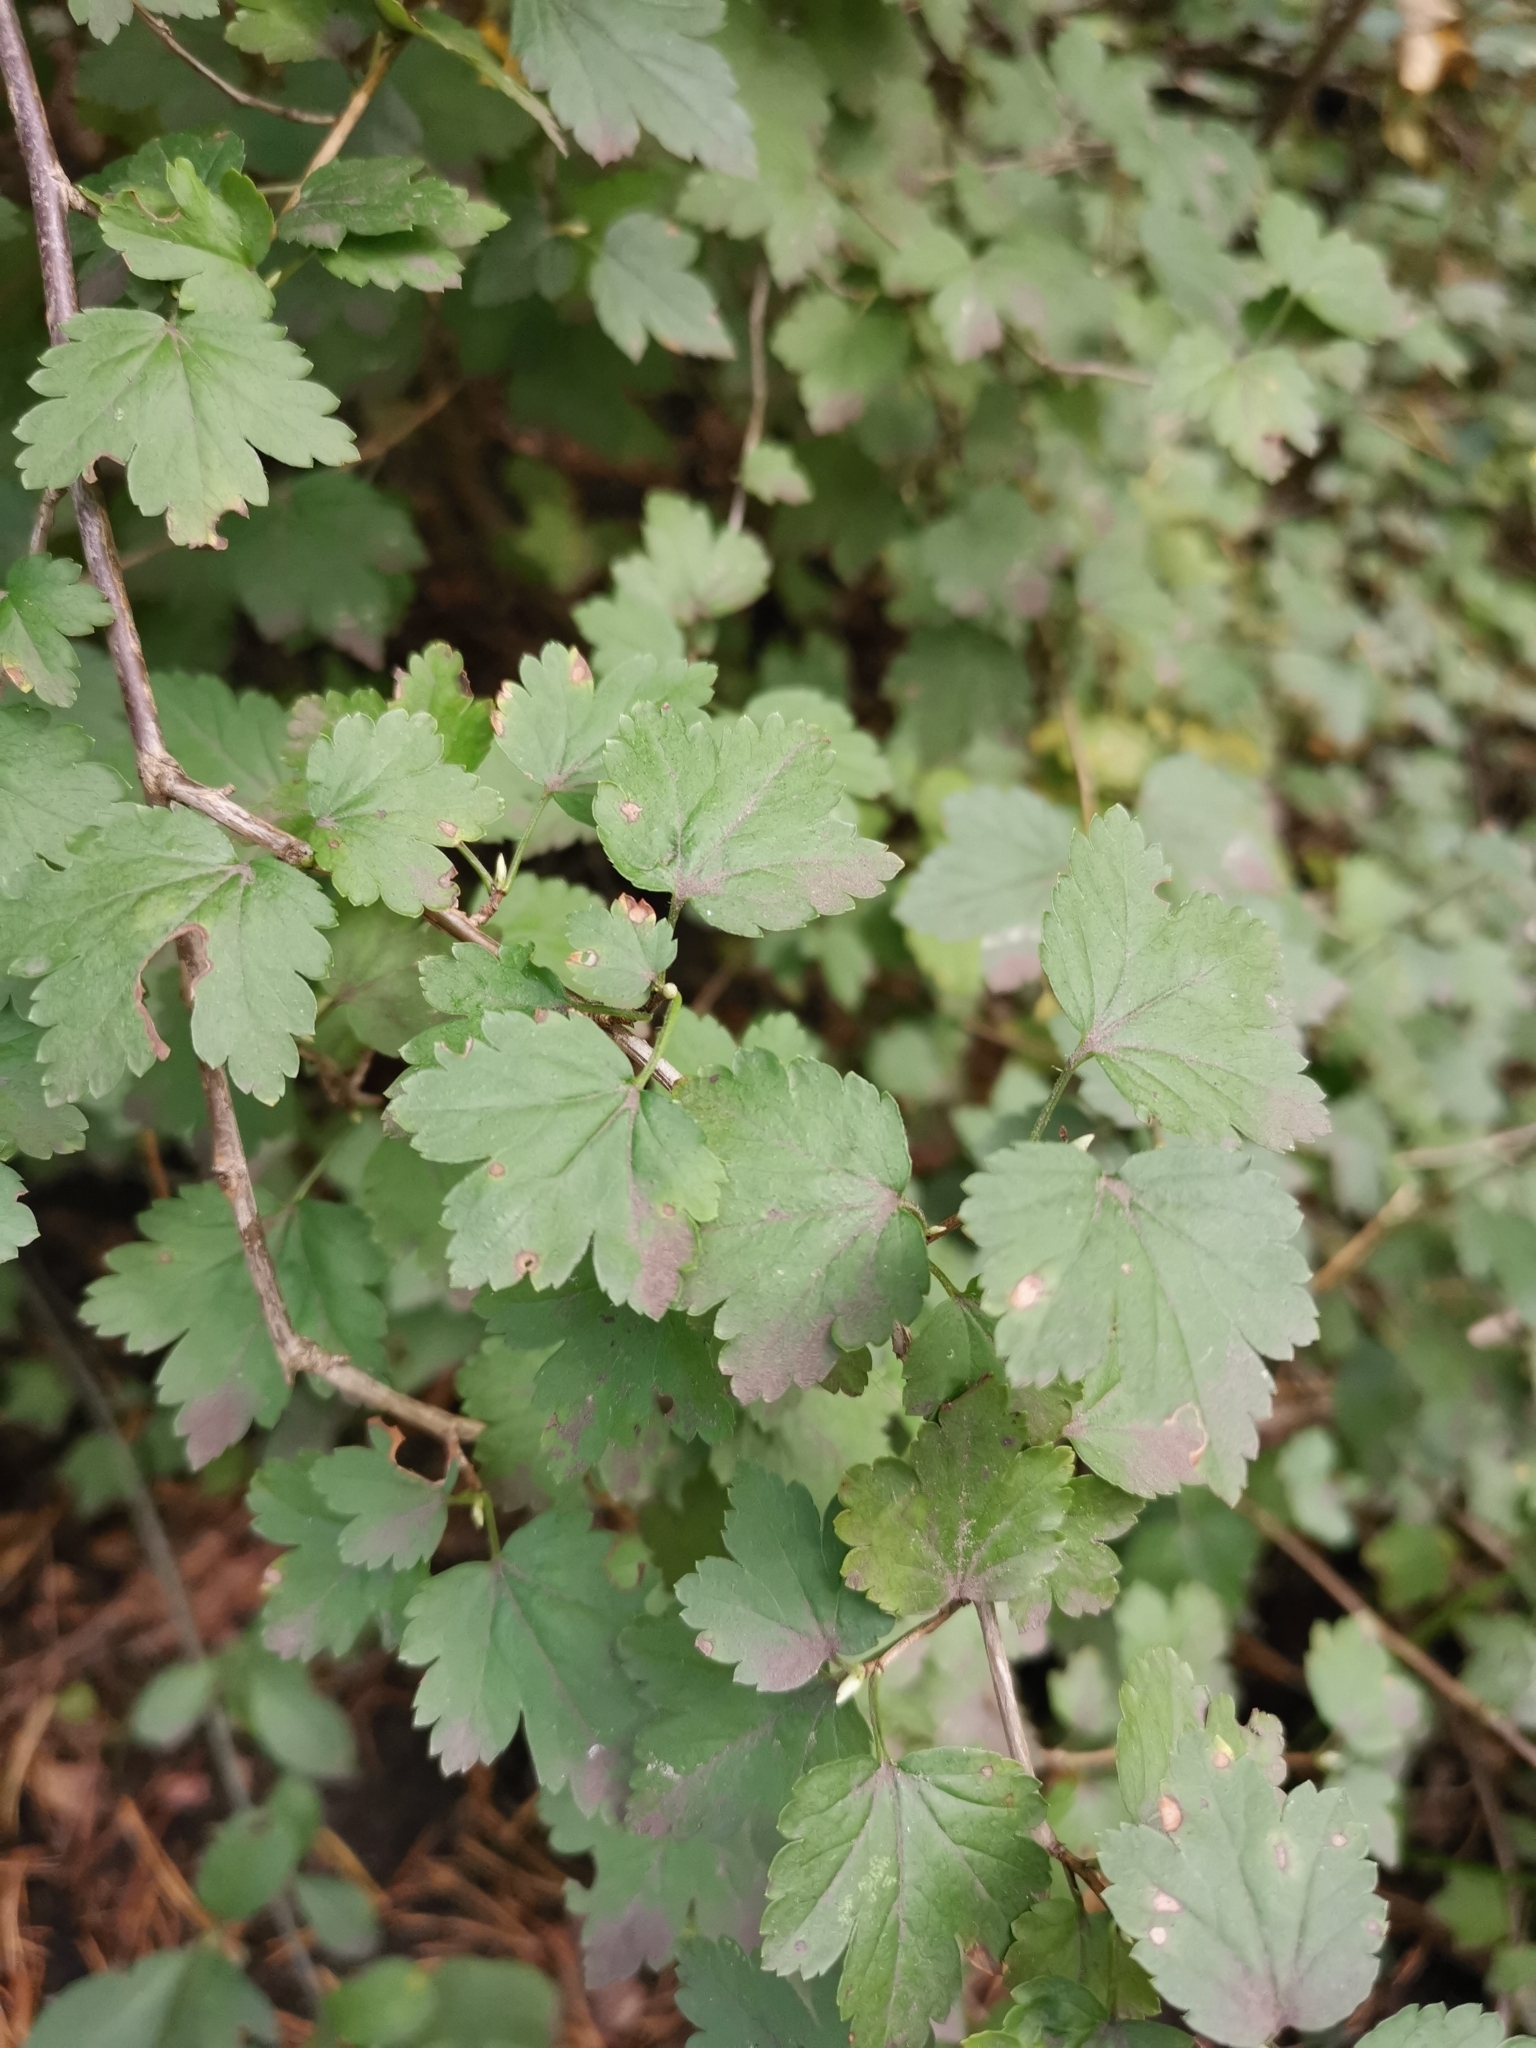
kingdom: Plantae
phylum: Tracheophyta
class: Magnoliopsida
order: Saxifragales
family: Grossulariaceae
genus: Ribes
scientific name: Ribes alpinum
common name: Alpine currant
